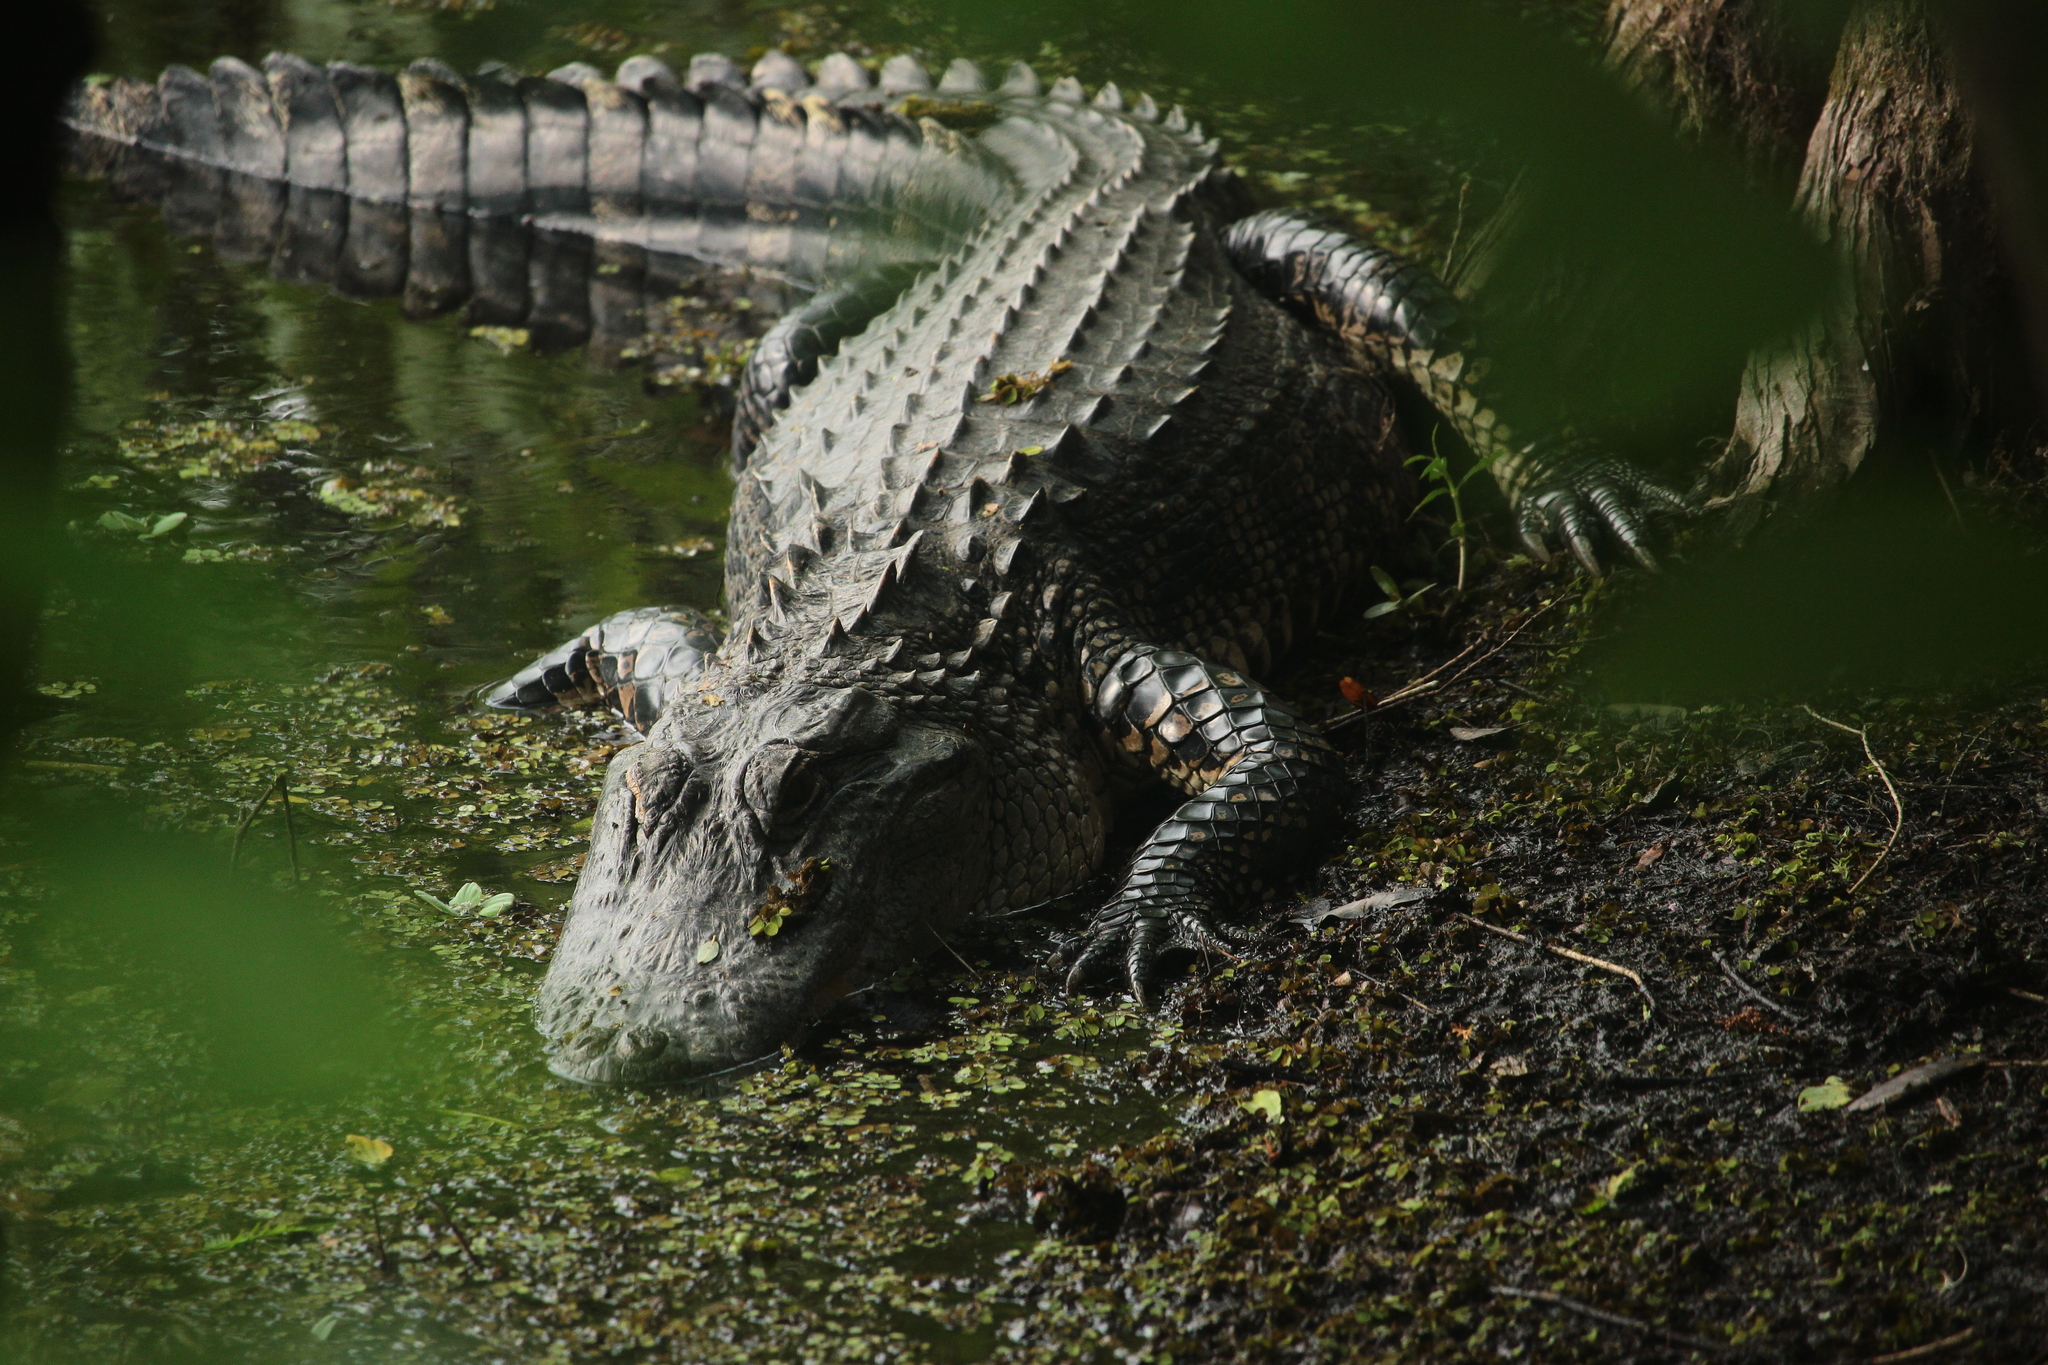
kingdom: Animalia
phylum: Chordata
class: Crocodylia
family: Alligatoridae
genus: Alligator
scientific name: Alligator mississippiensis
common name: American alligator
